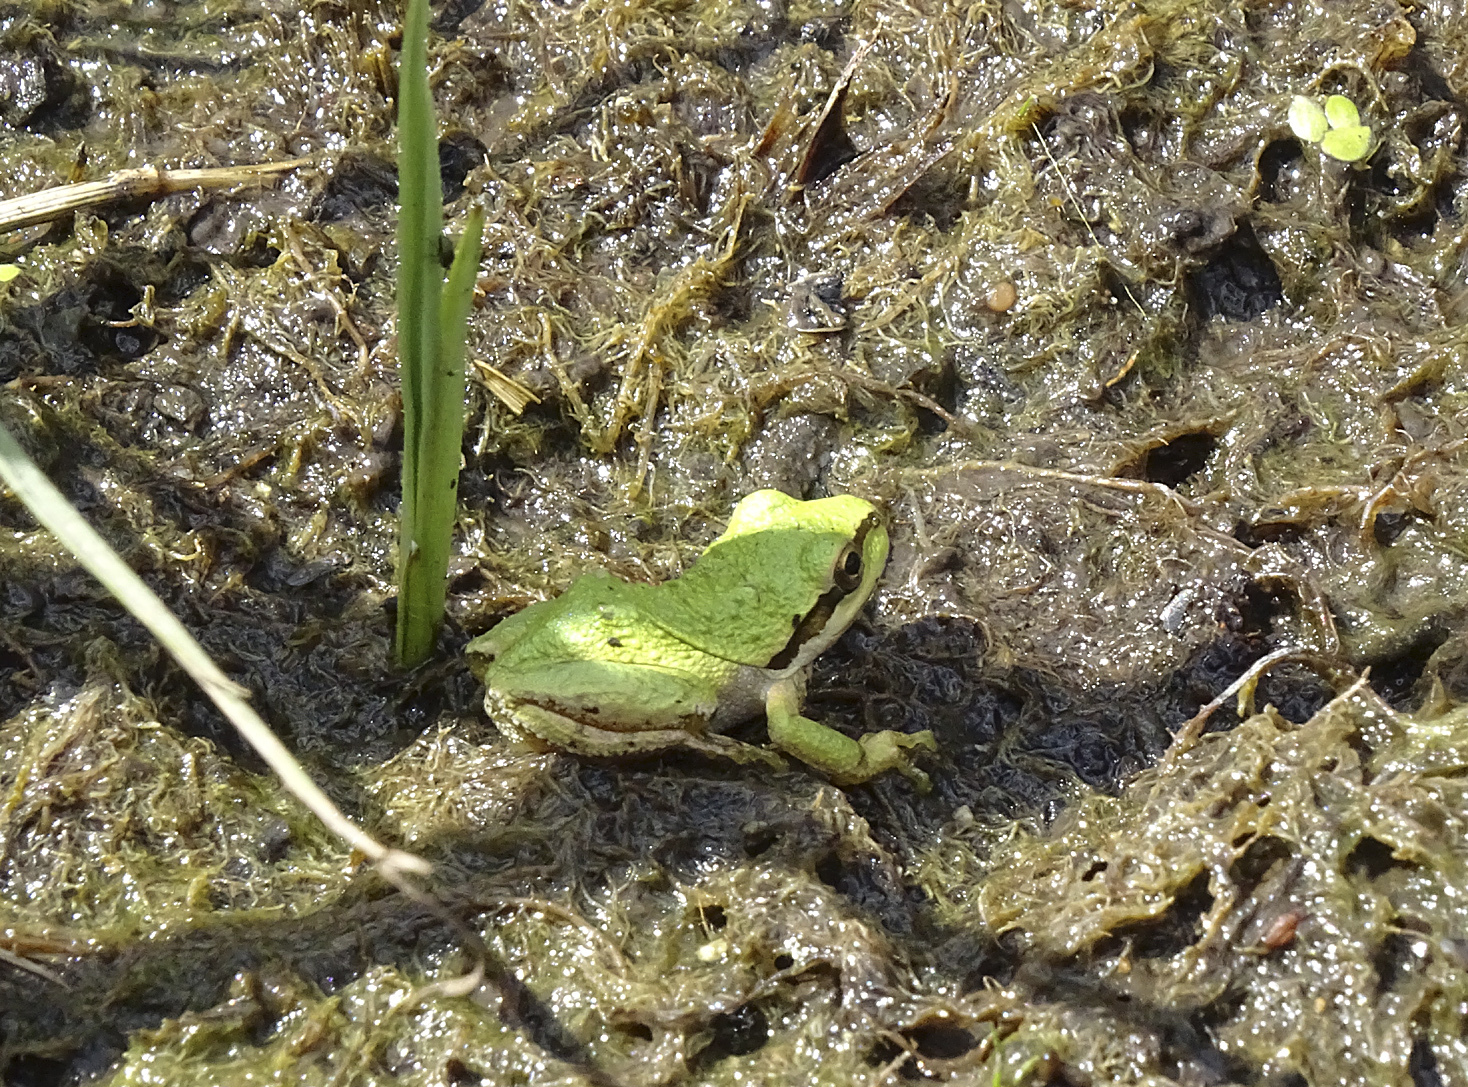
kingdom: Animalia
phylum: Chordata
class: Amphibia
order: Anura
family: Hylidae
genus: Pseudacris
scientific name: Pseudacris regilla
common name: Pacific chorus frog
